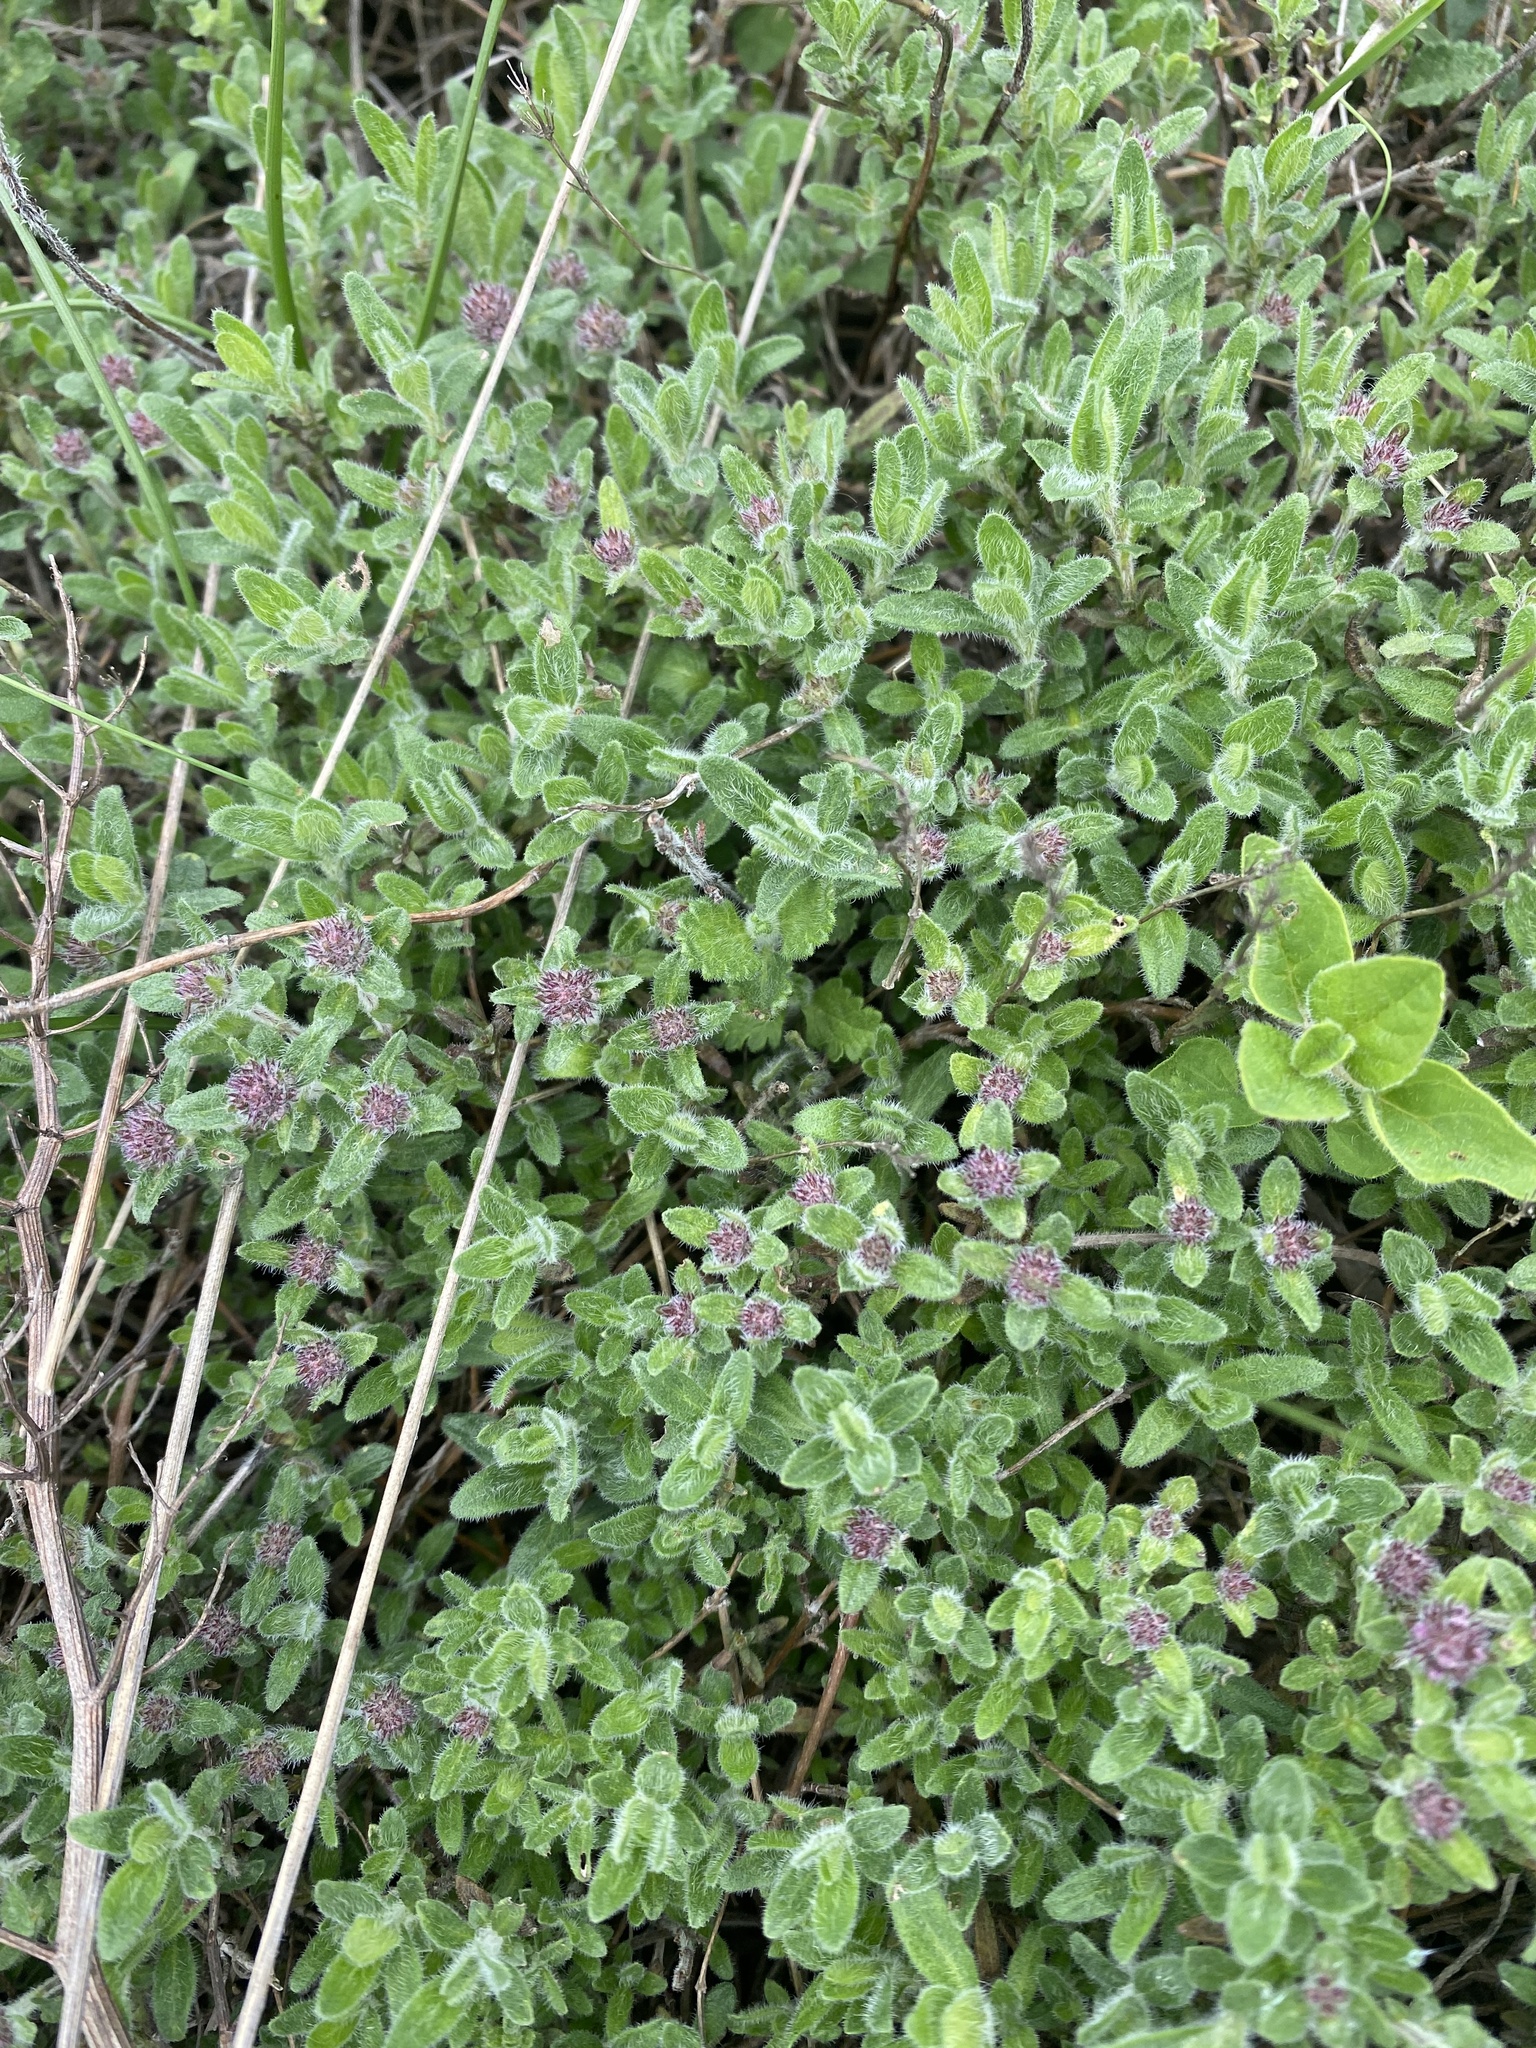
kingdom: Plantae
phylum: Tracheophyta
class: Magnoliopsida
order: Lamiales
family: Lamiaceae
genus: Teucrium
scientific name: Teucrium chamaedrys
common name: Wall germander
